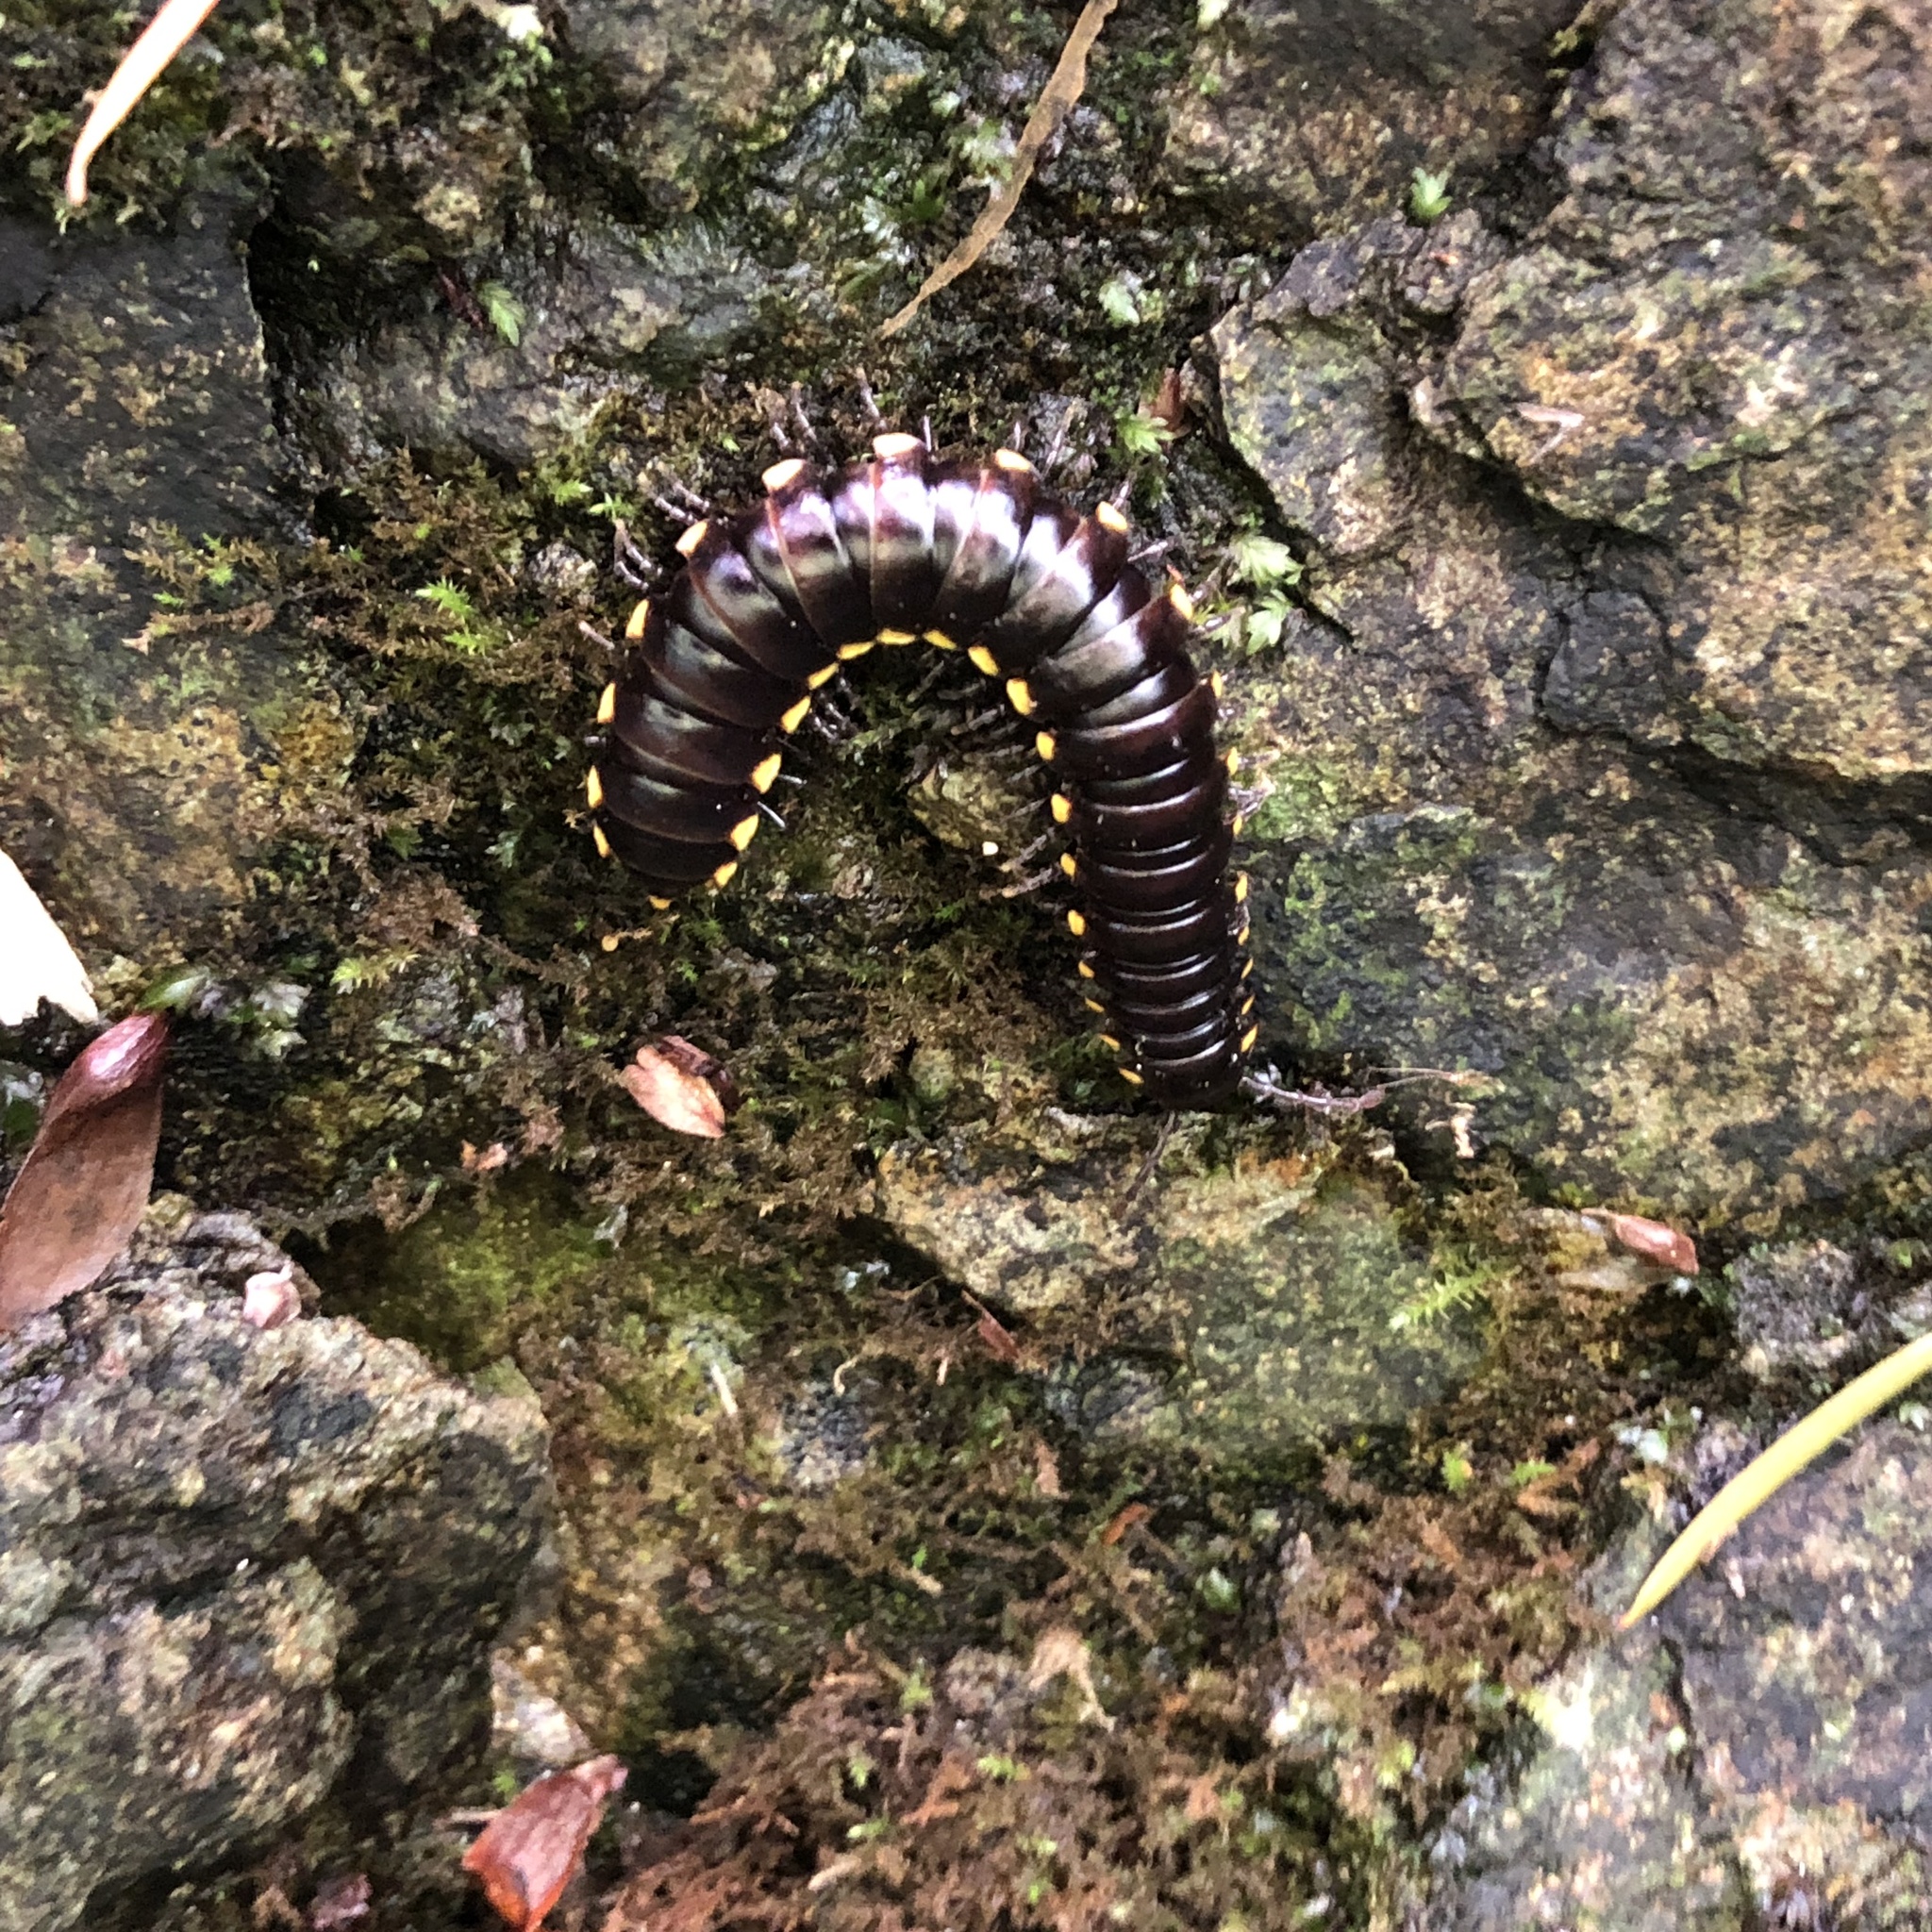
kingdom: Animalia
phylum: Arthropoda
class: Diplopoda
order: Polydesmida
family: Xystodesmidae
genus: Harpaphe
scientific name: Harpaphe haydeniana
